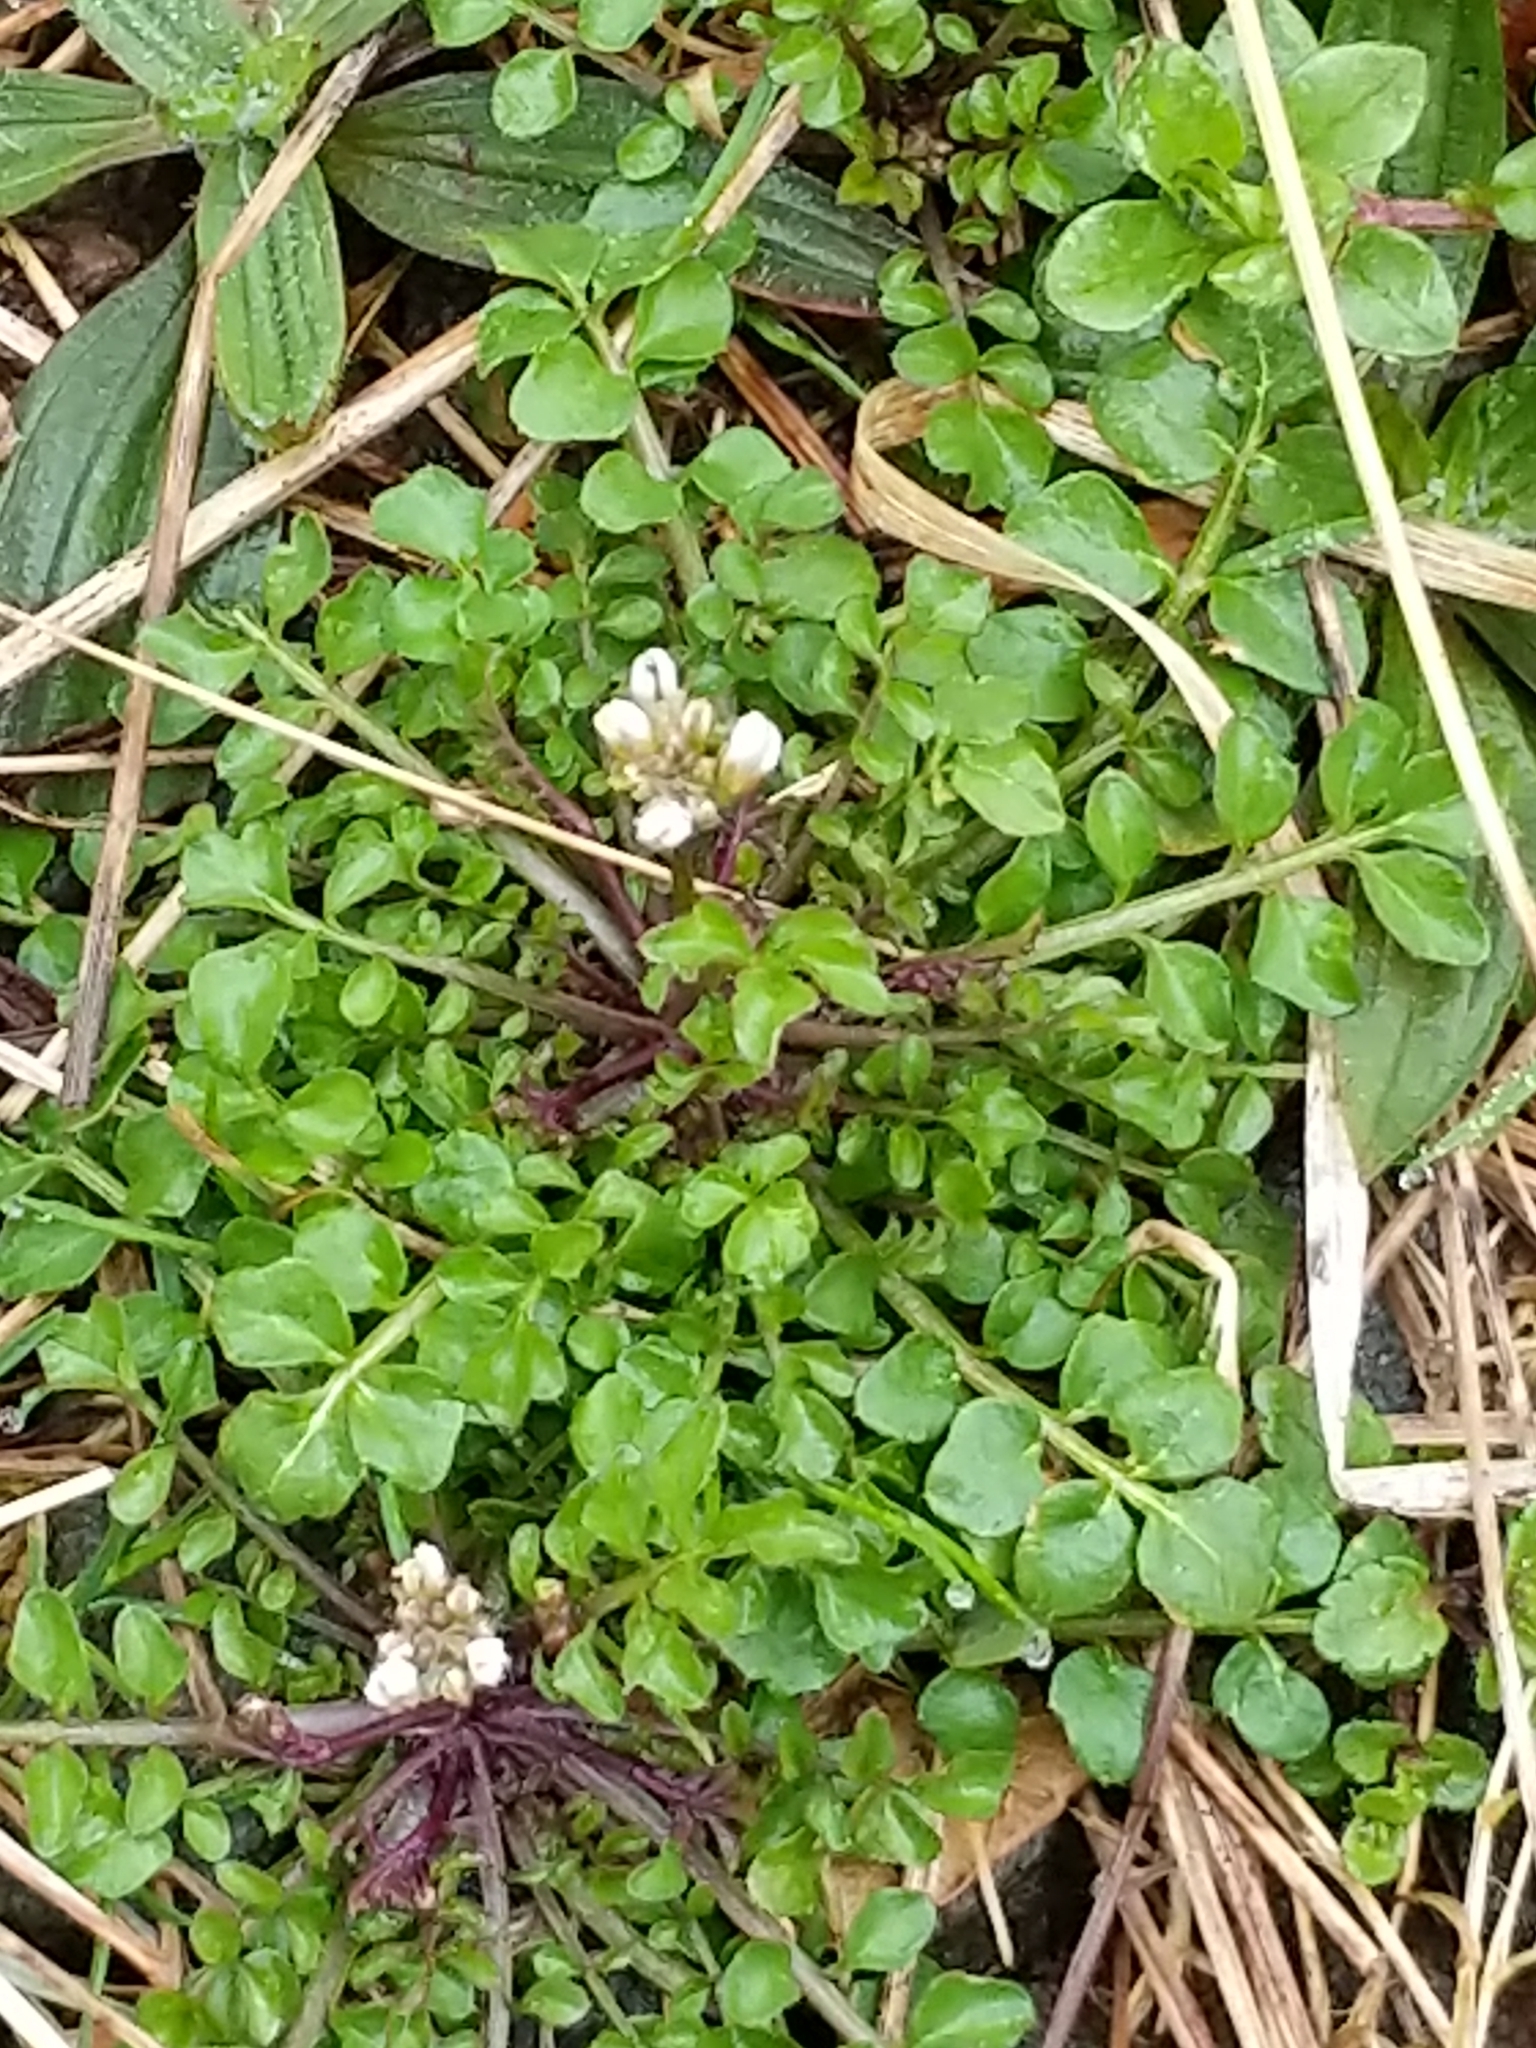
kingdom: Plantae
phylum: Tracheophyta
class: Magnoliopsida
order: Brassicales
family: Brassicaceae
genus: Cardamine
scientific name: Cardamine hirsuta
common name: Hairy bittercress
